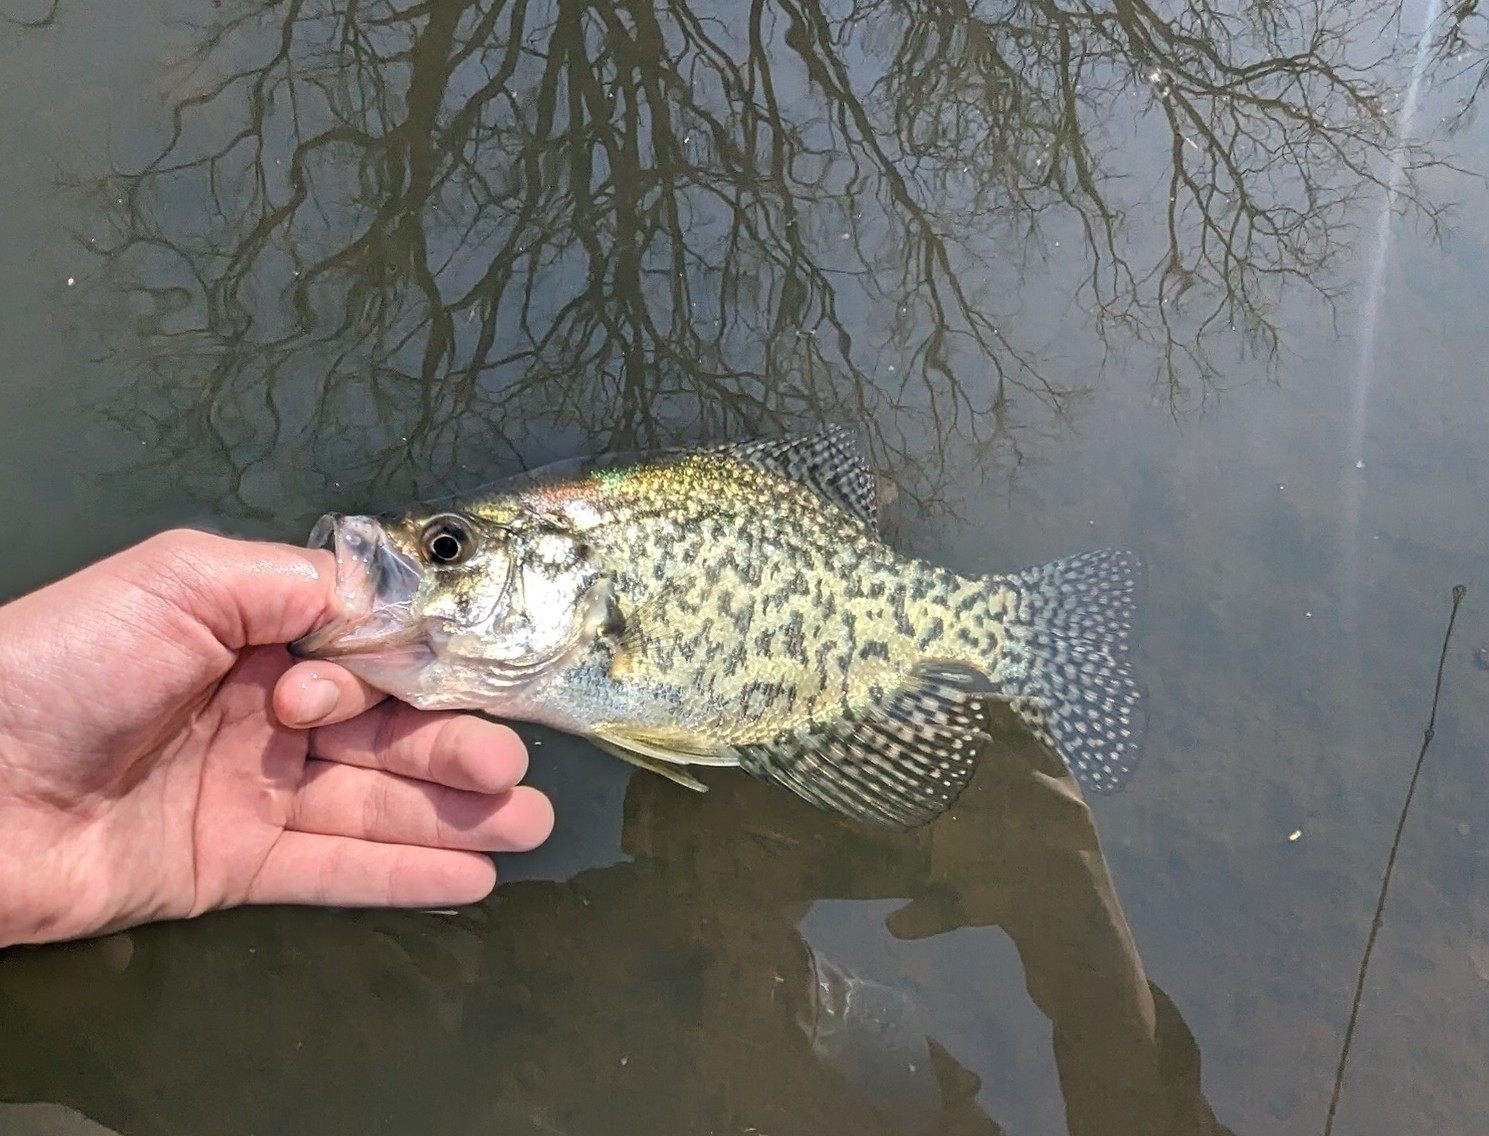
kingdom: Animalia
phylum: Chordata
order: Perciformes
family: Centrarchidae
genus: Pomoxis
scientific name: Pomoxis nigromaculatus
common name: Black crappie
